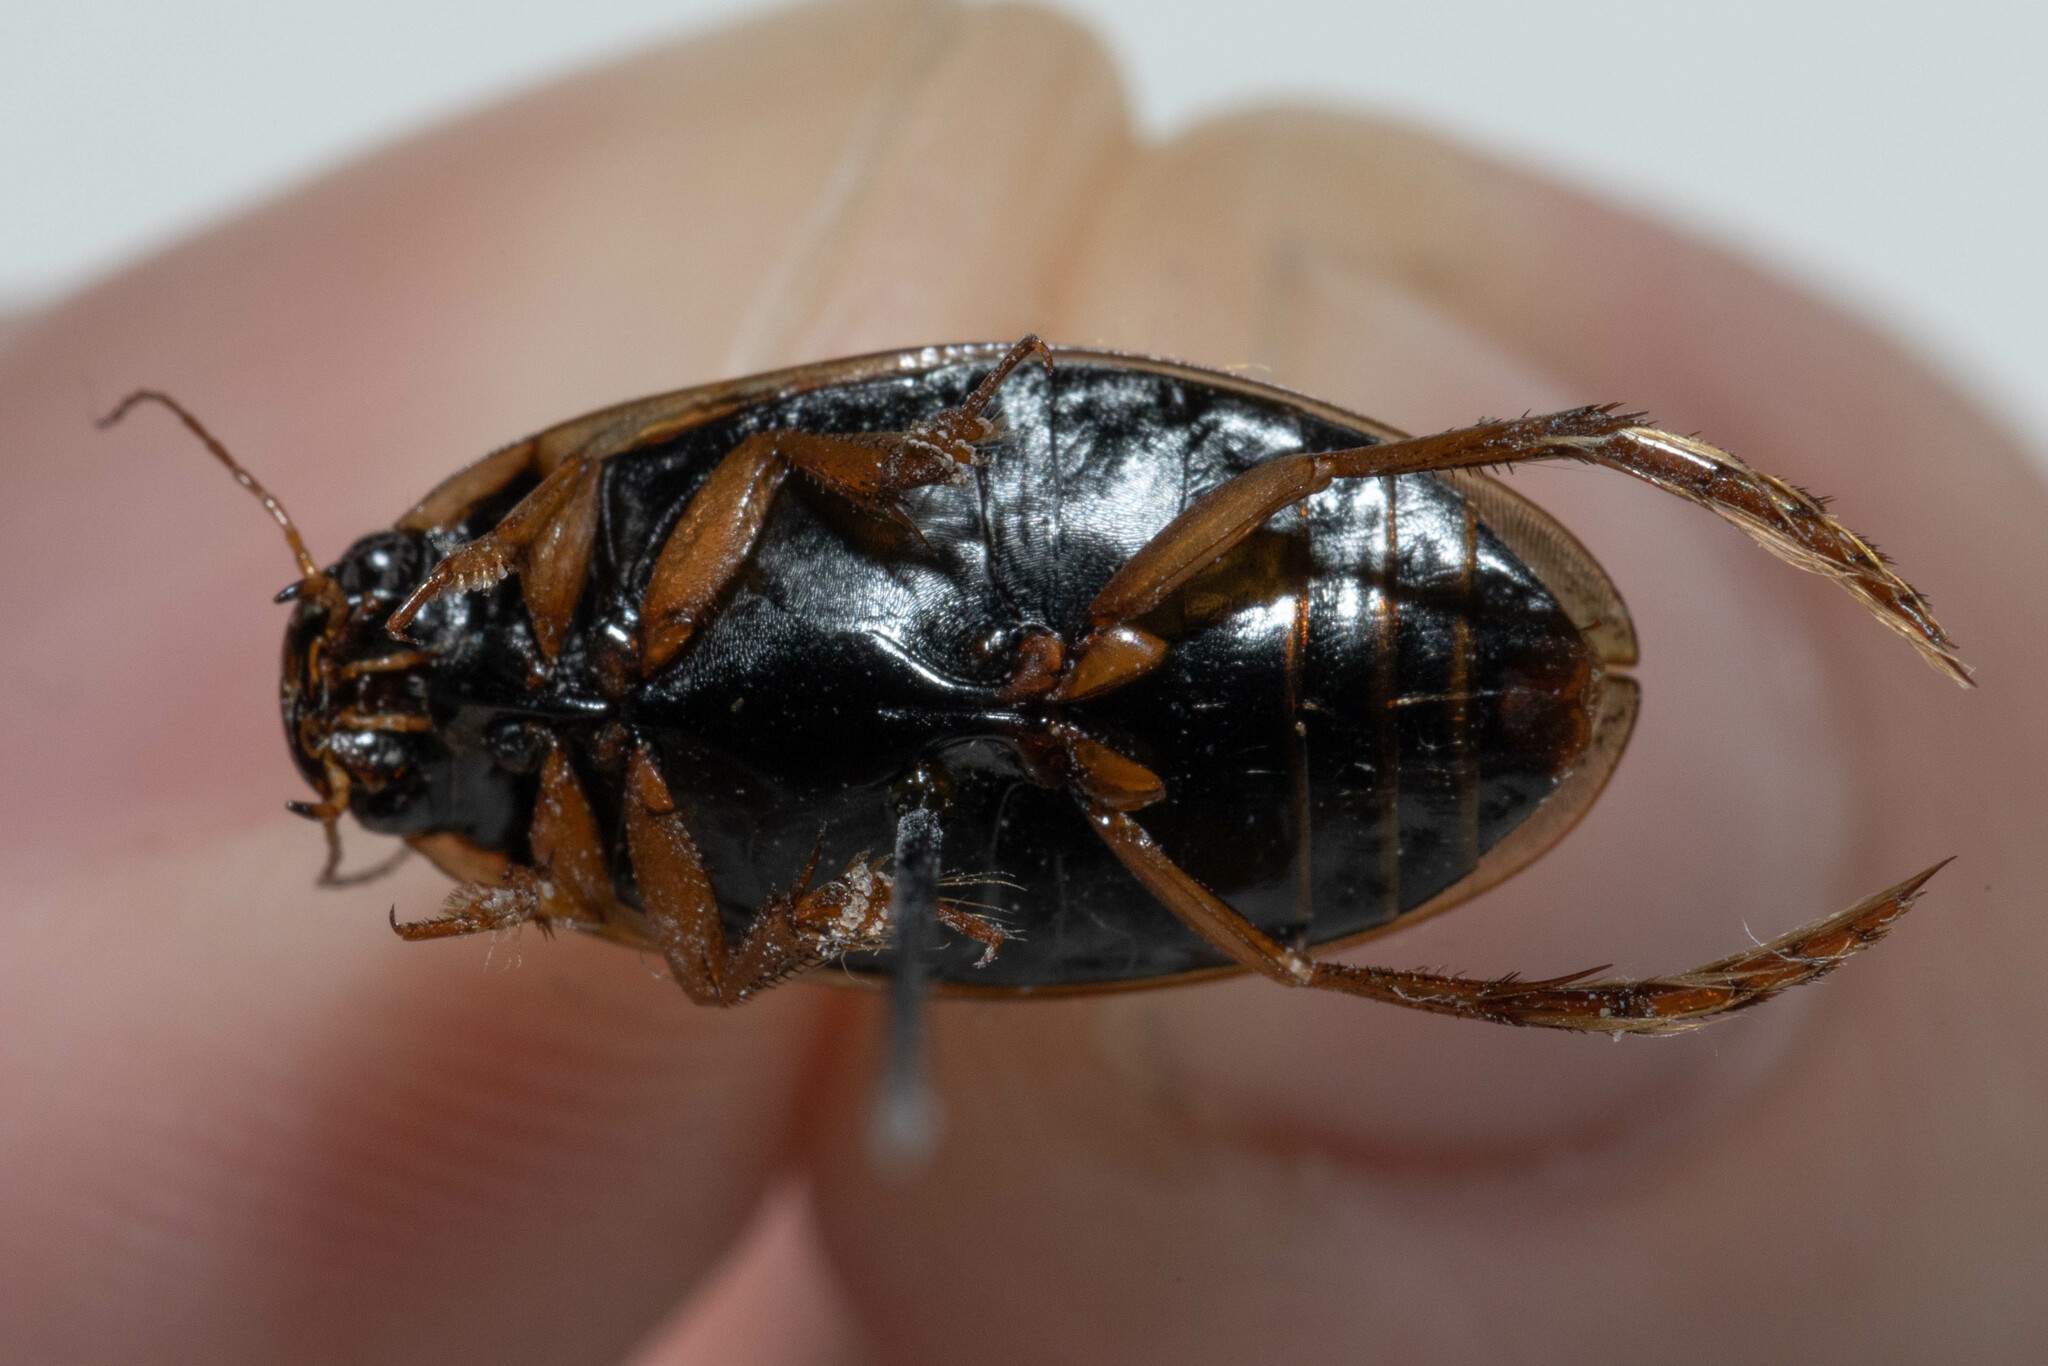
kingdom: Animalia
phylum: Arthropoda
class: Insecta
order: Coleoptera
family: Dytiscidae
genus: Colymbetes
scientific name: Colymbetes densus
